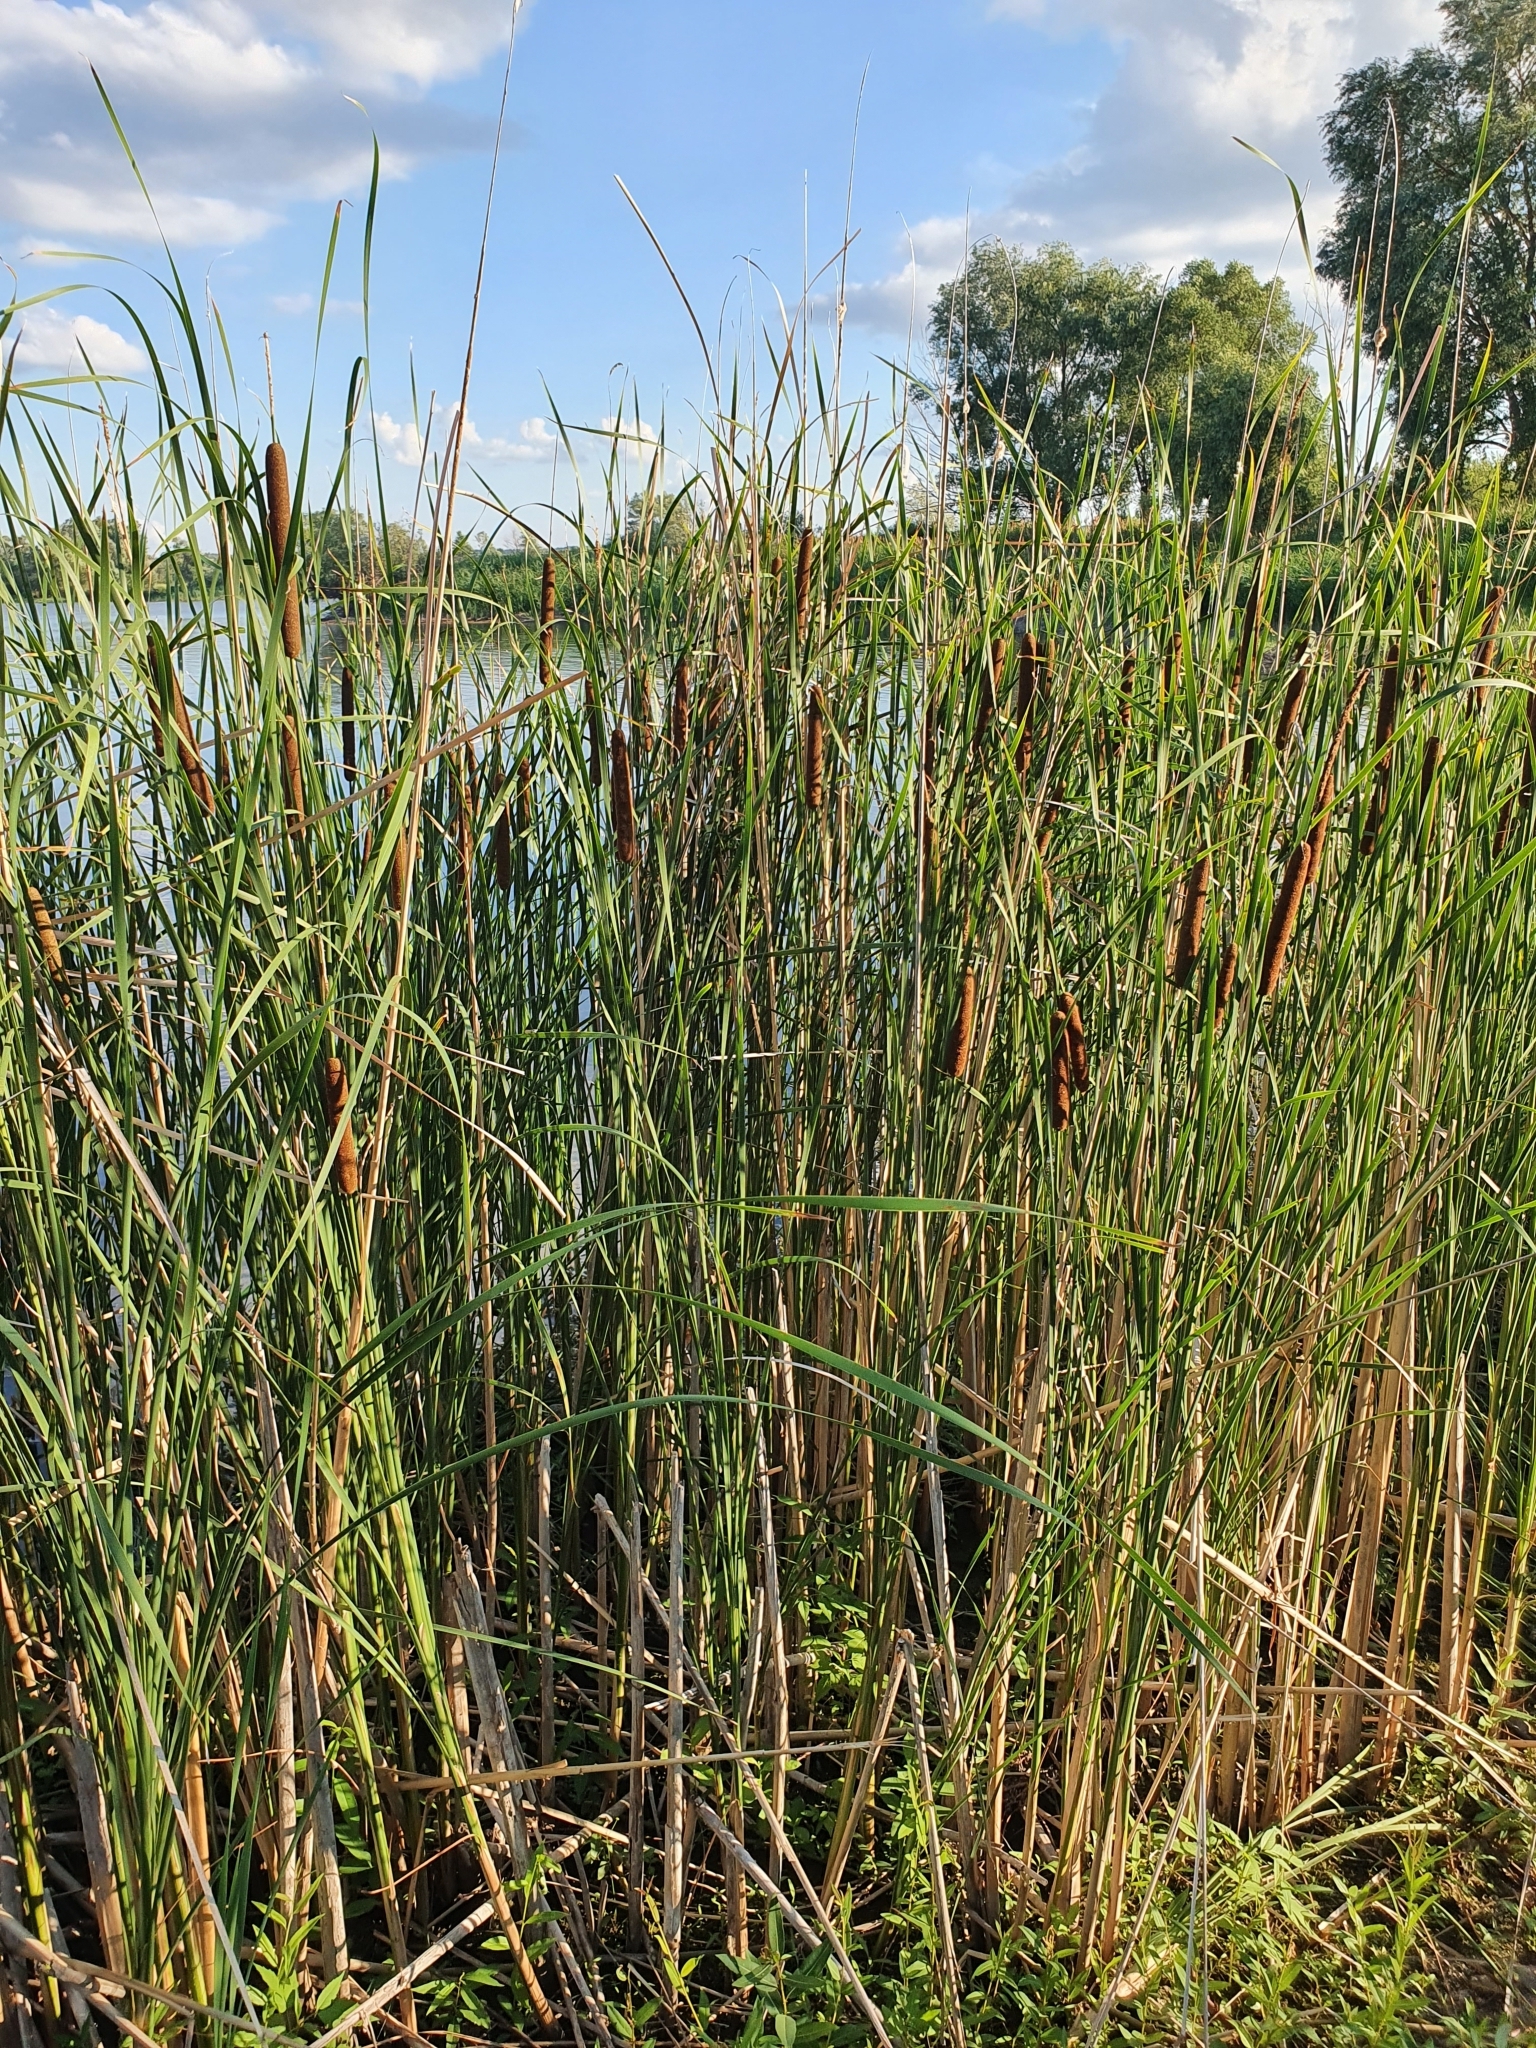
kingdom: Plantae
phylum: Tracheophyta
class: Liliopsida
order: Poales
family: Typhaceae
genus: Typha
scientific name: Typha angustifolia
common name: Lesser bulrush
